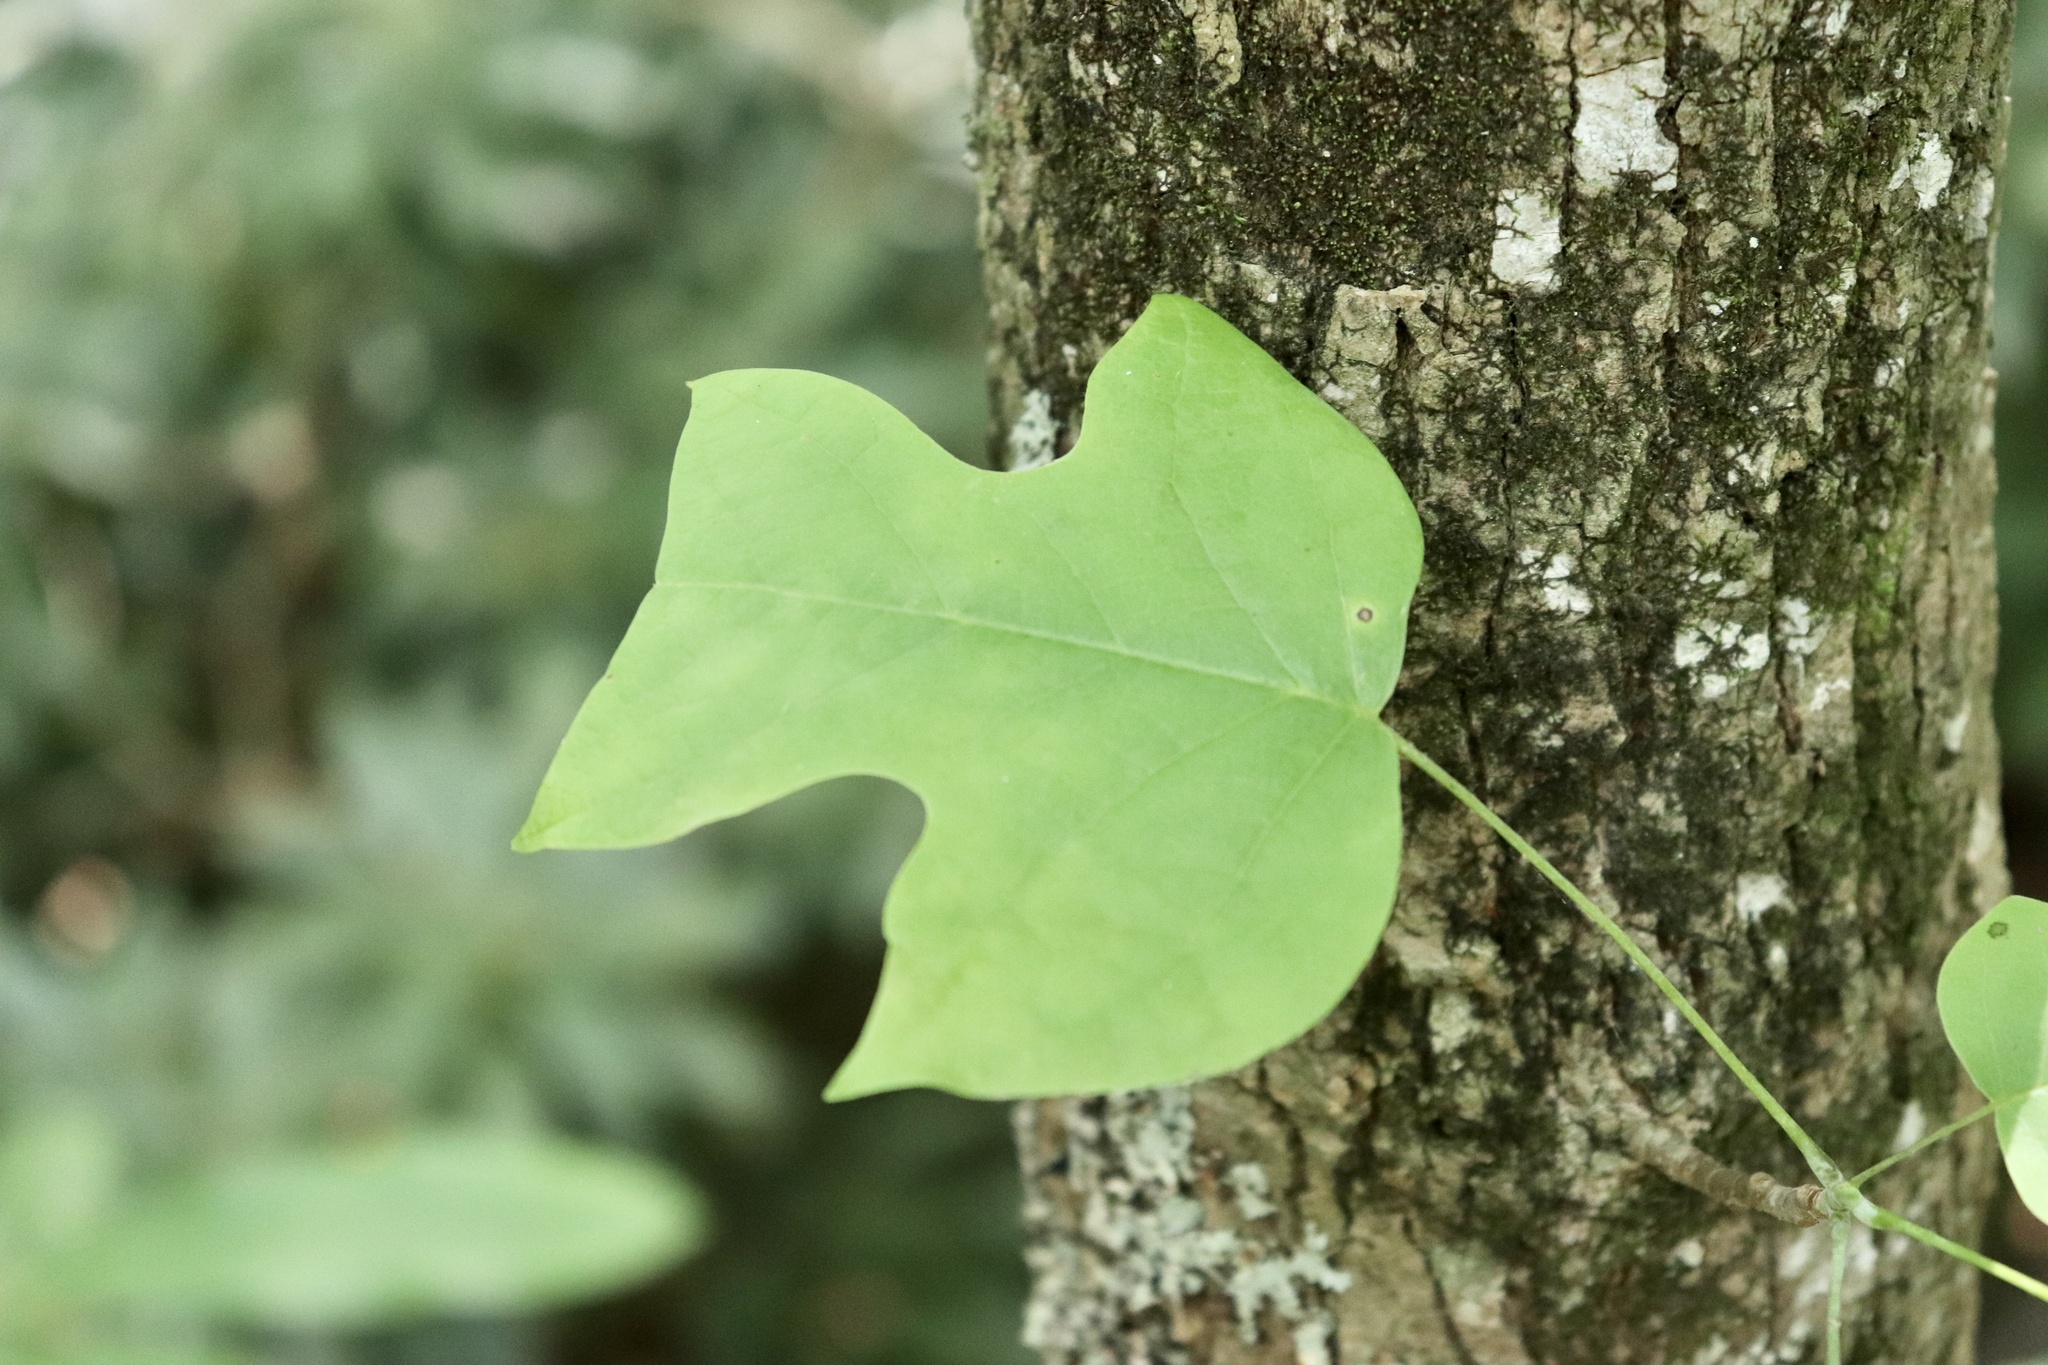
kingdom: Plantae
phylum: Tracheophyta
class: Magnoliopsida
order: Magnoliales
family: Magnoliaceae
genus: Liriodendron
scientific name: Liriodendron tulipifera
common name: Tulip tree
